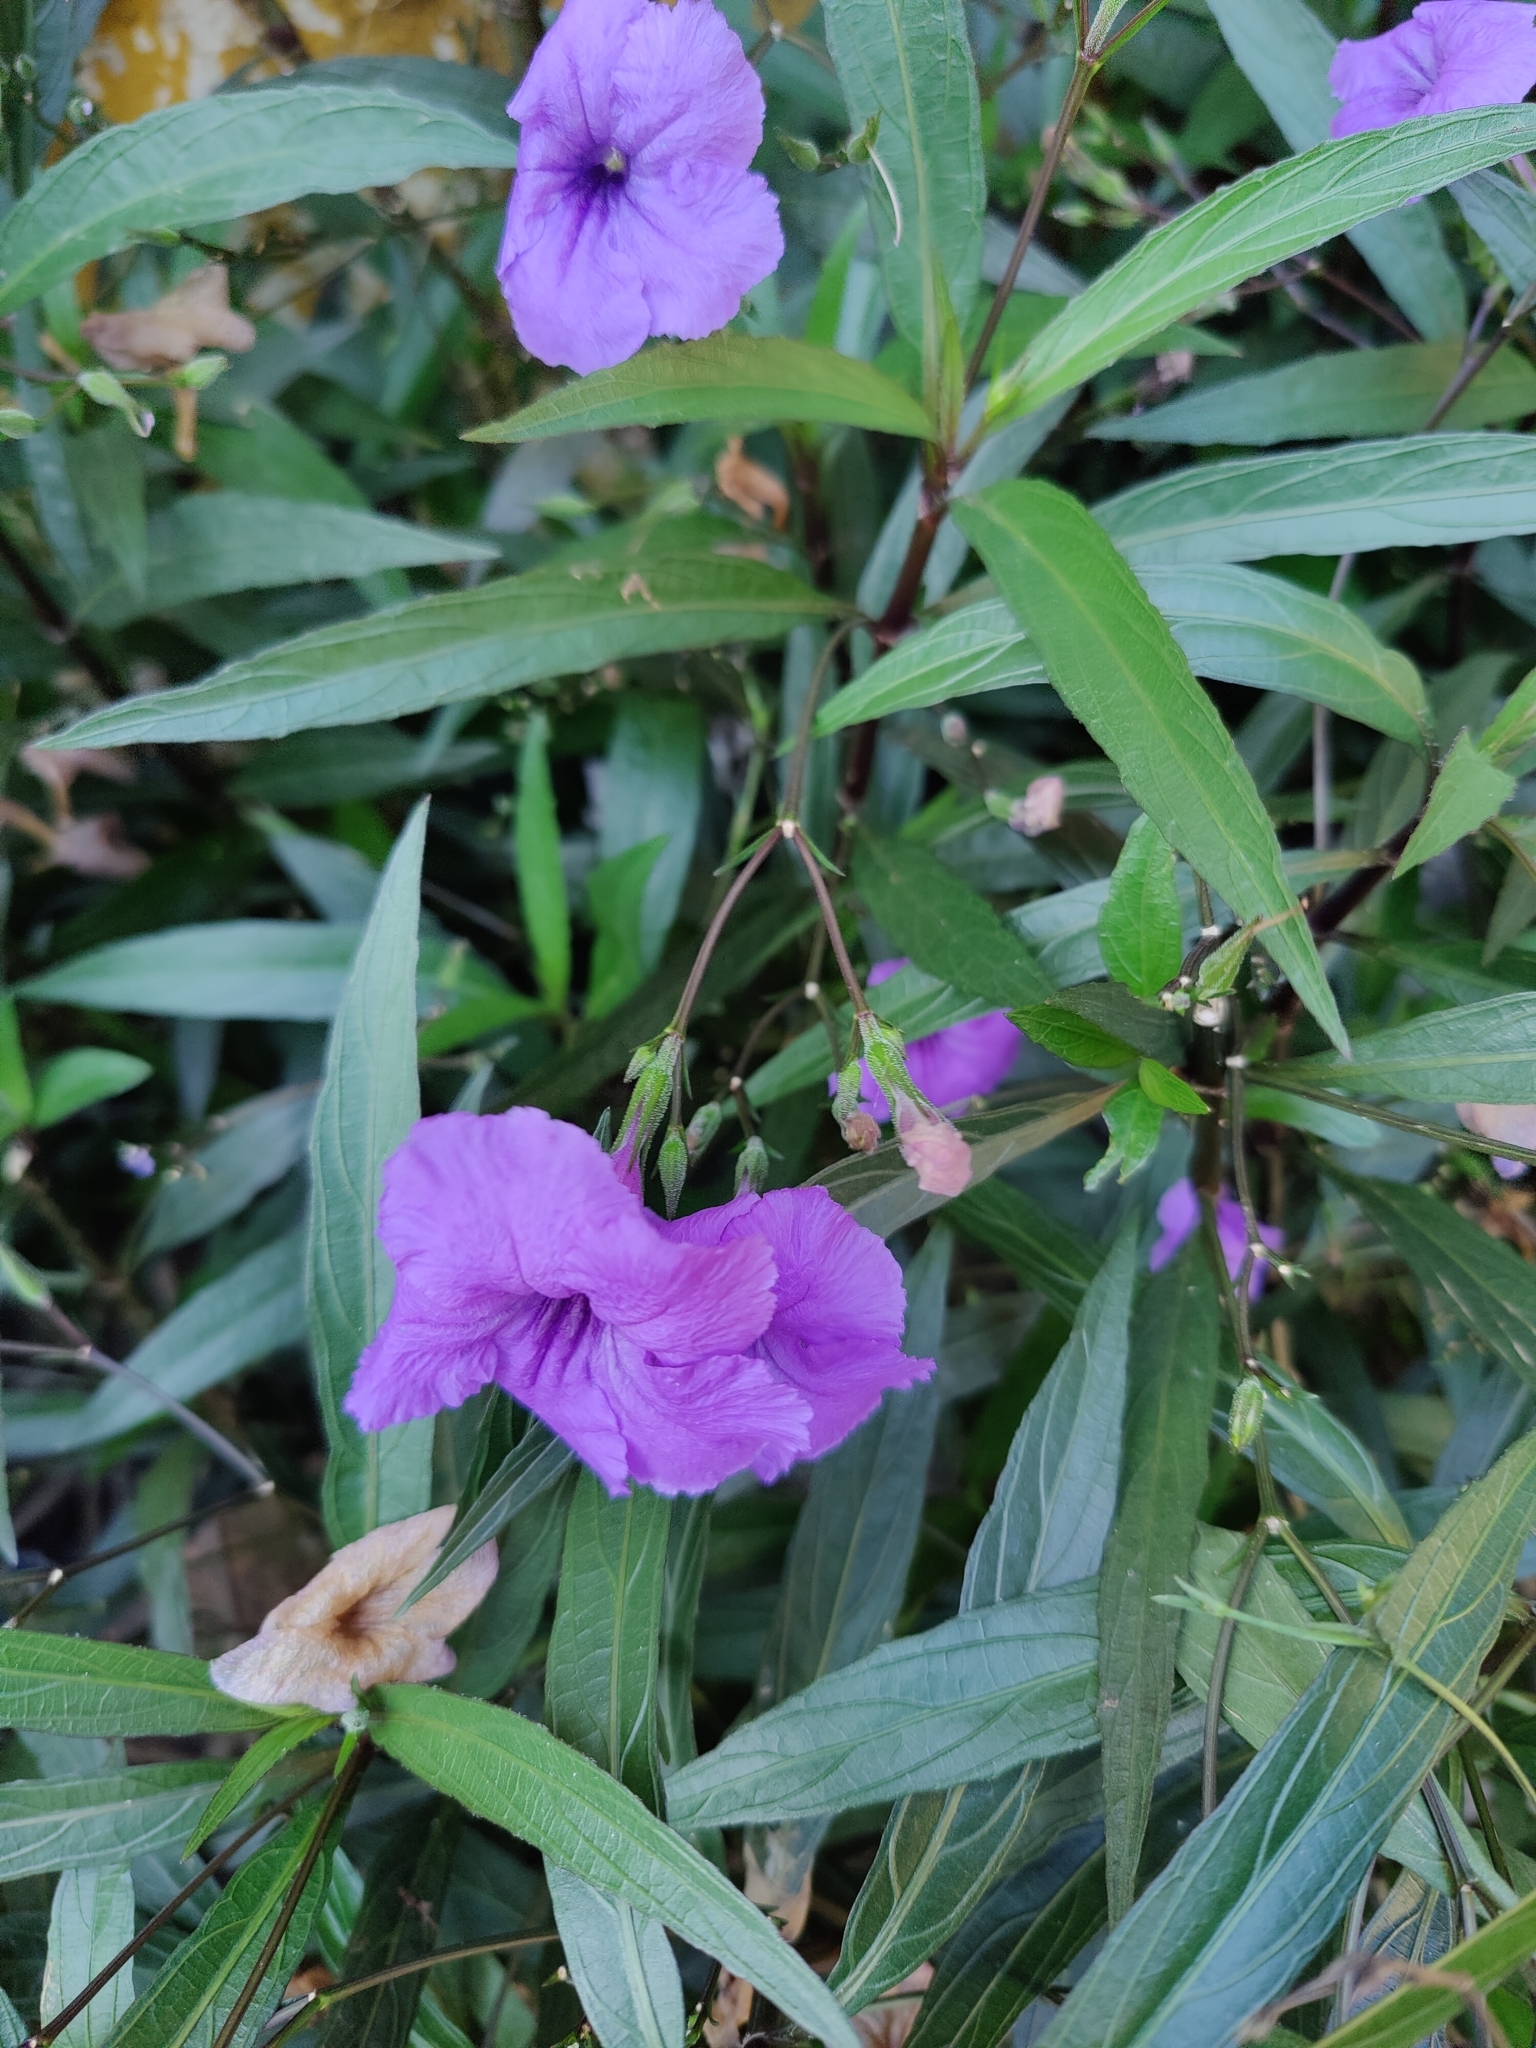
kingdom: Plantae
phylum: Tracheophyta
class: Magnoliopsida
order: Lamiales
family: Acanthaceae
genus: Ruellia
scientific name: Ruellia simplex
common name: Softseed wild petunia
